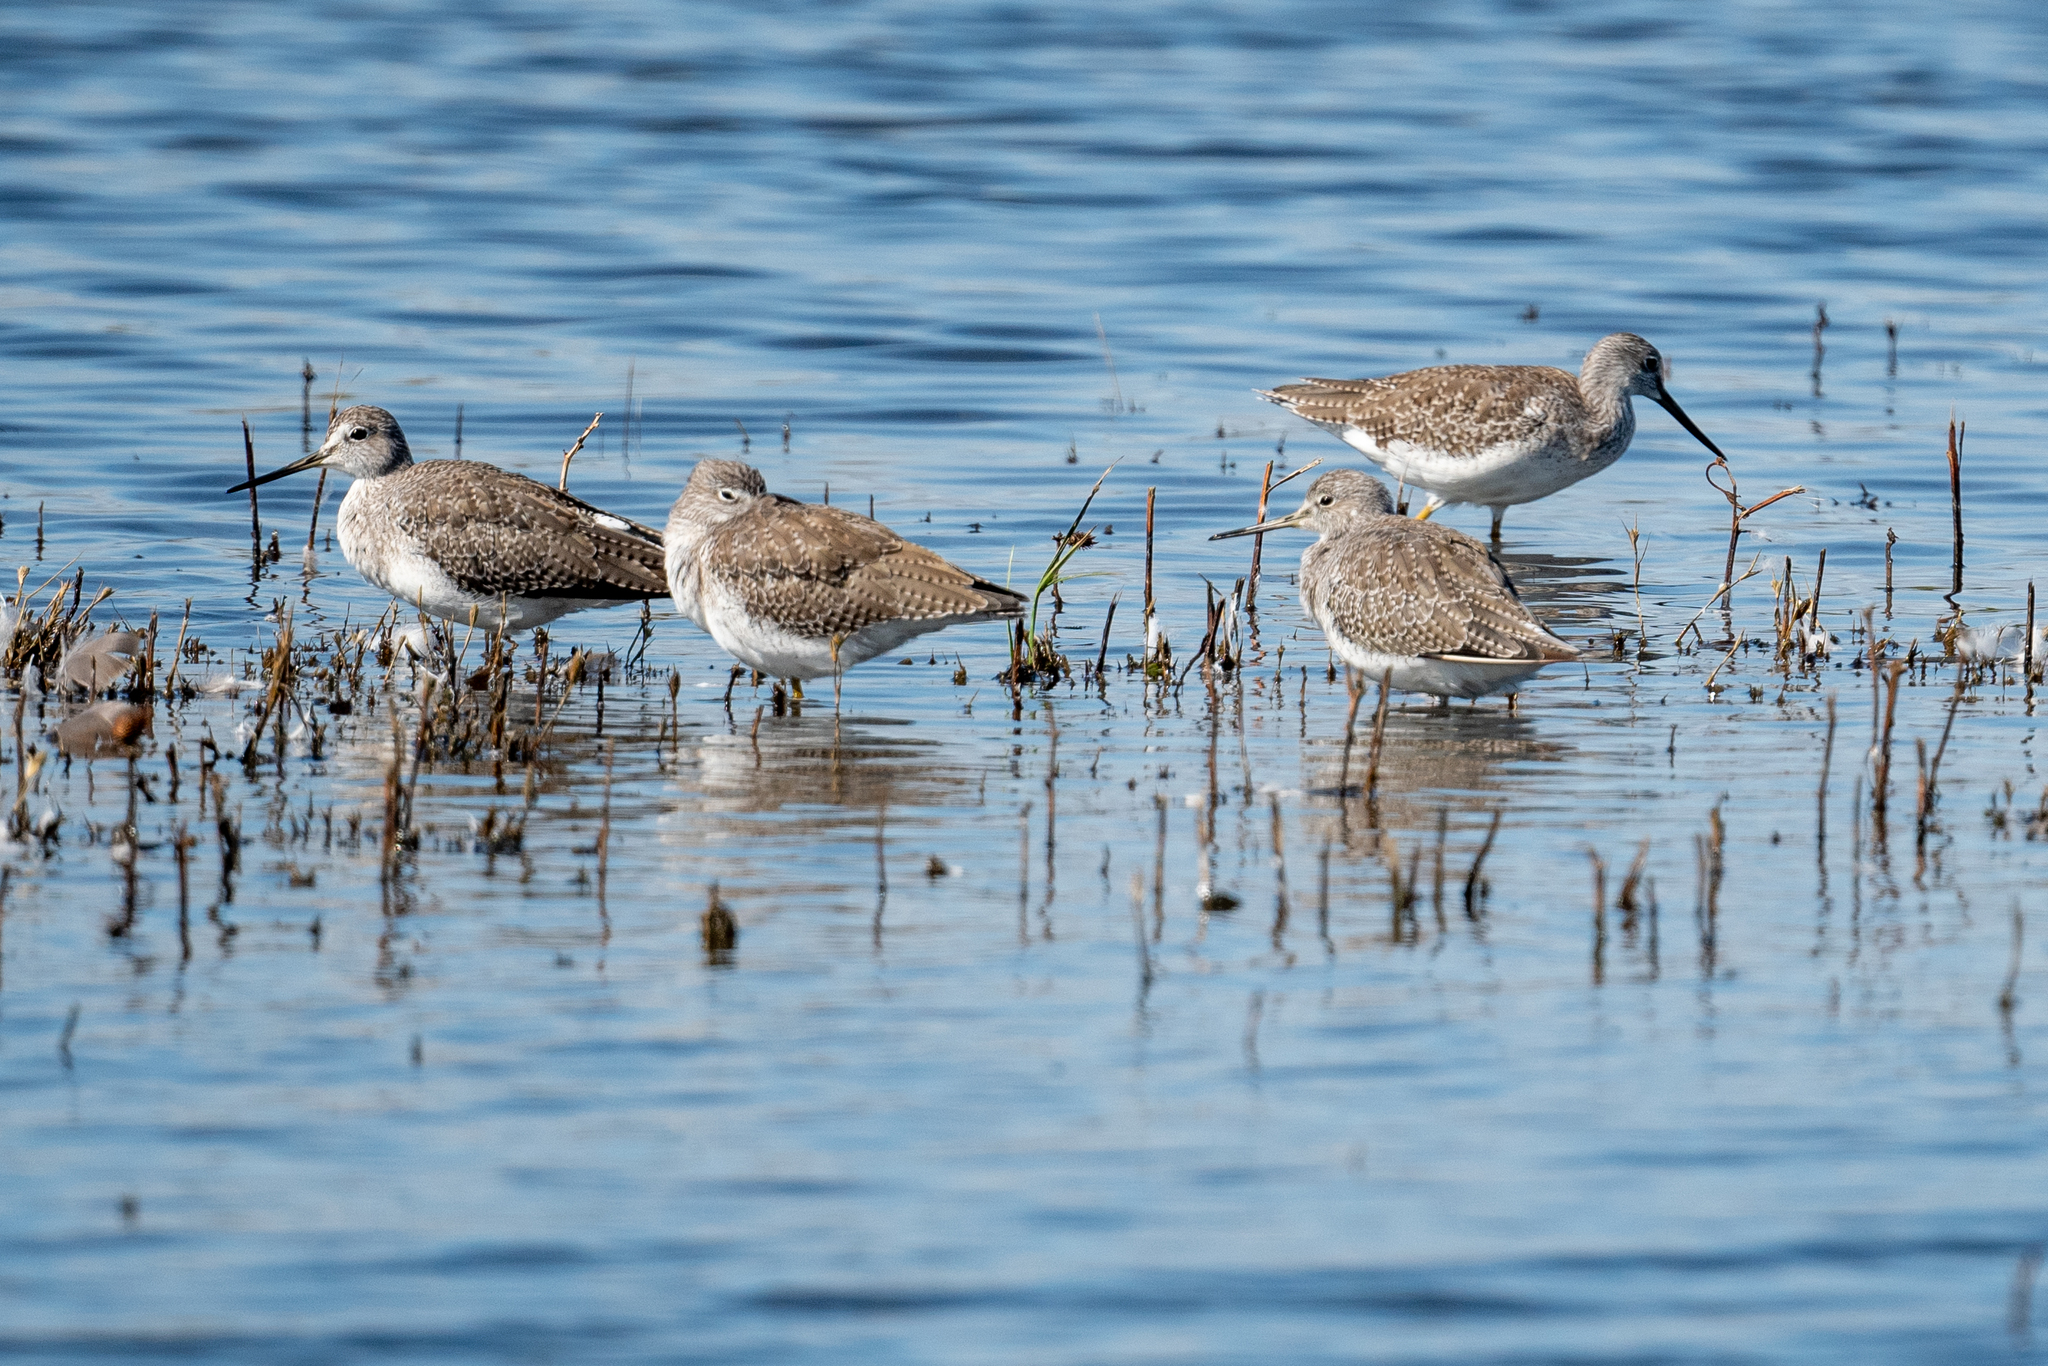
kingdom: Animalia
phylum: Chordata
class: Aves
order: Charadriiformes
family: Scolopacidae
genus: Tringa
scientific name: Tringa melanoleuca
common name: Greater yellowlegs
